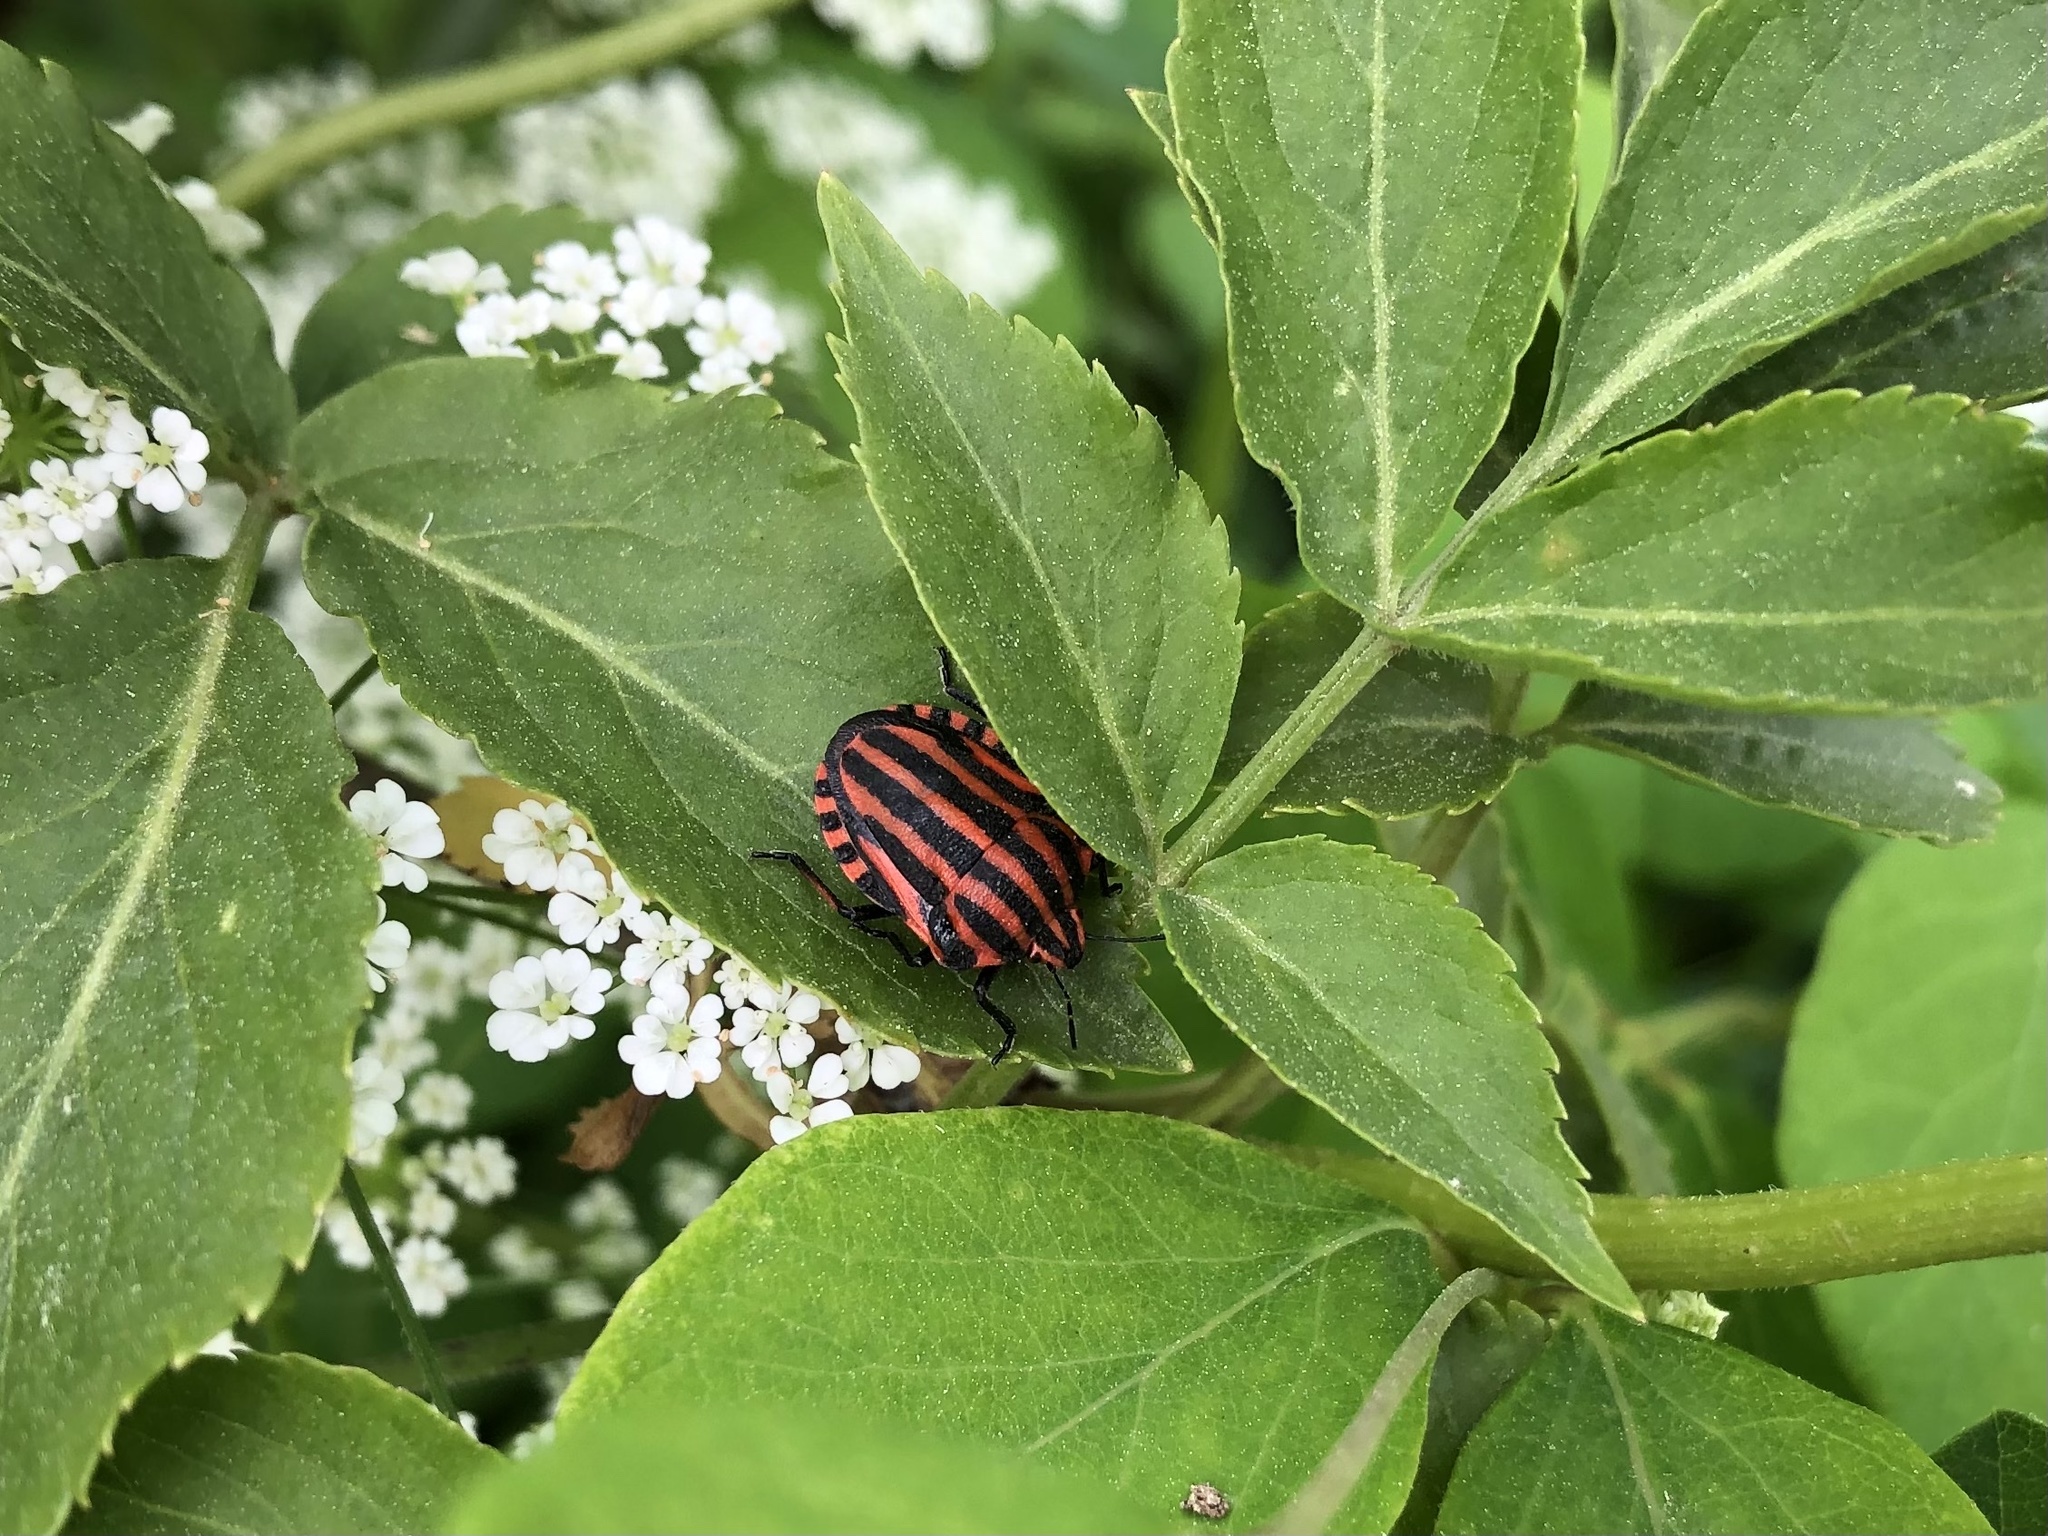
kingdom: Animalia
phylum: Arthropoda
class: Insecta
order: Hemiptera
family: Pentatomidae
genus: Graphosoma
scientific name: Graphosoma italicum
